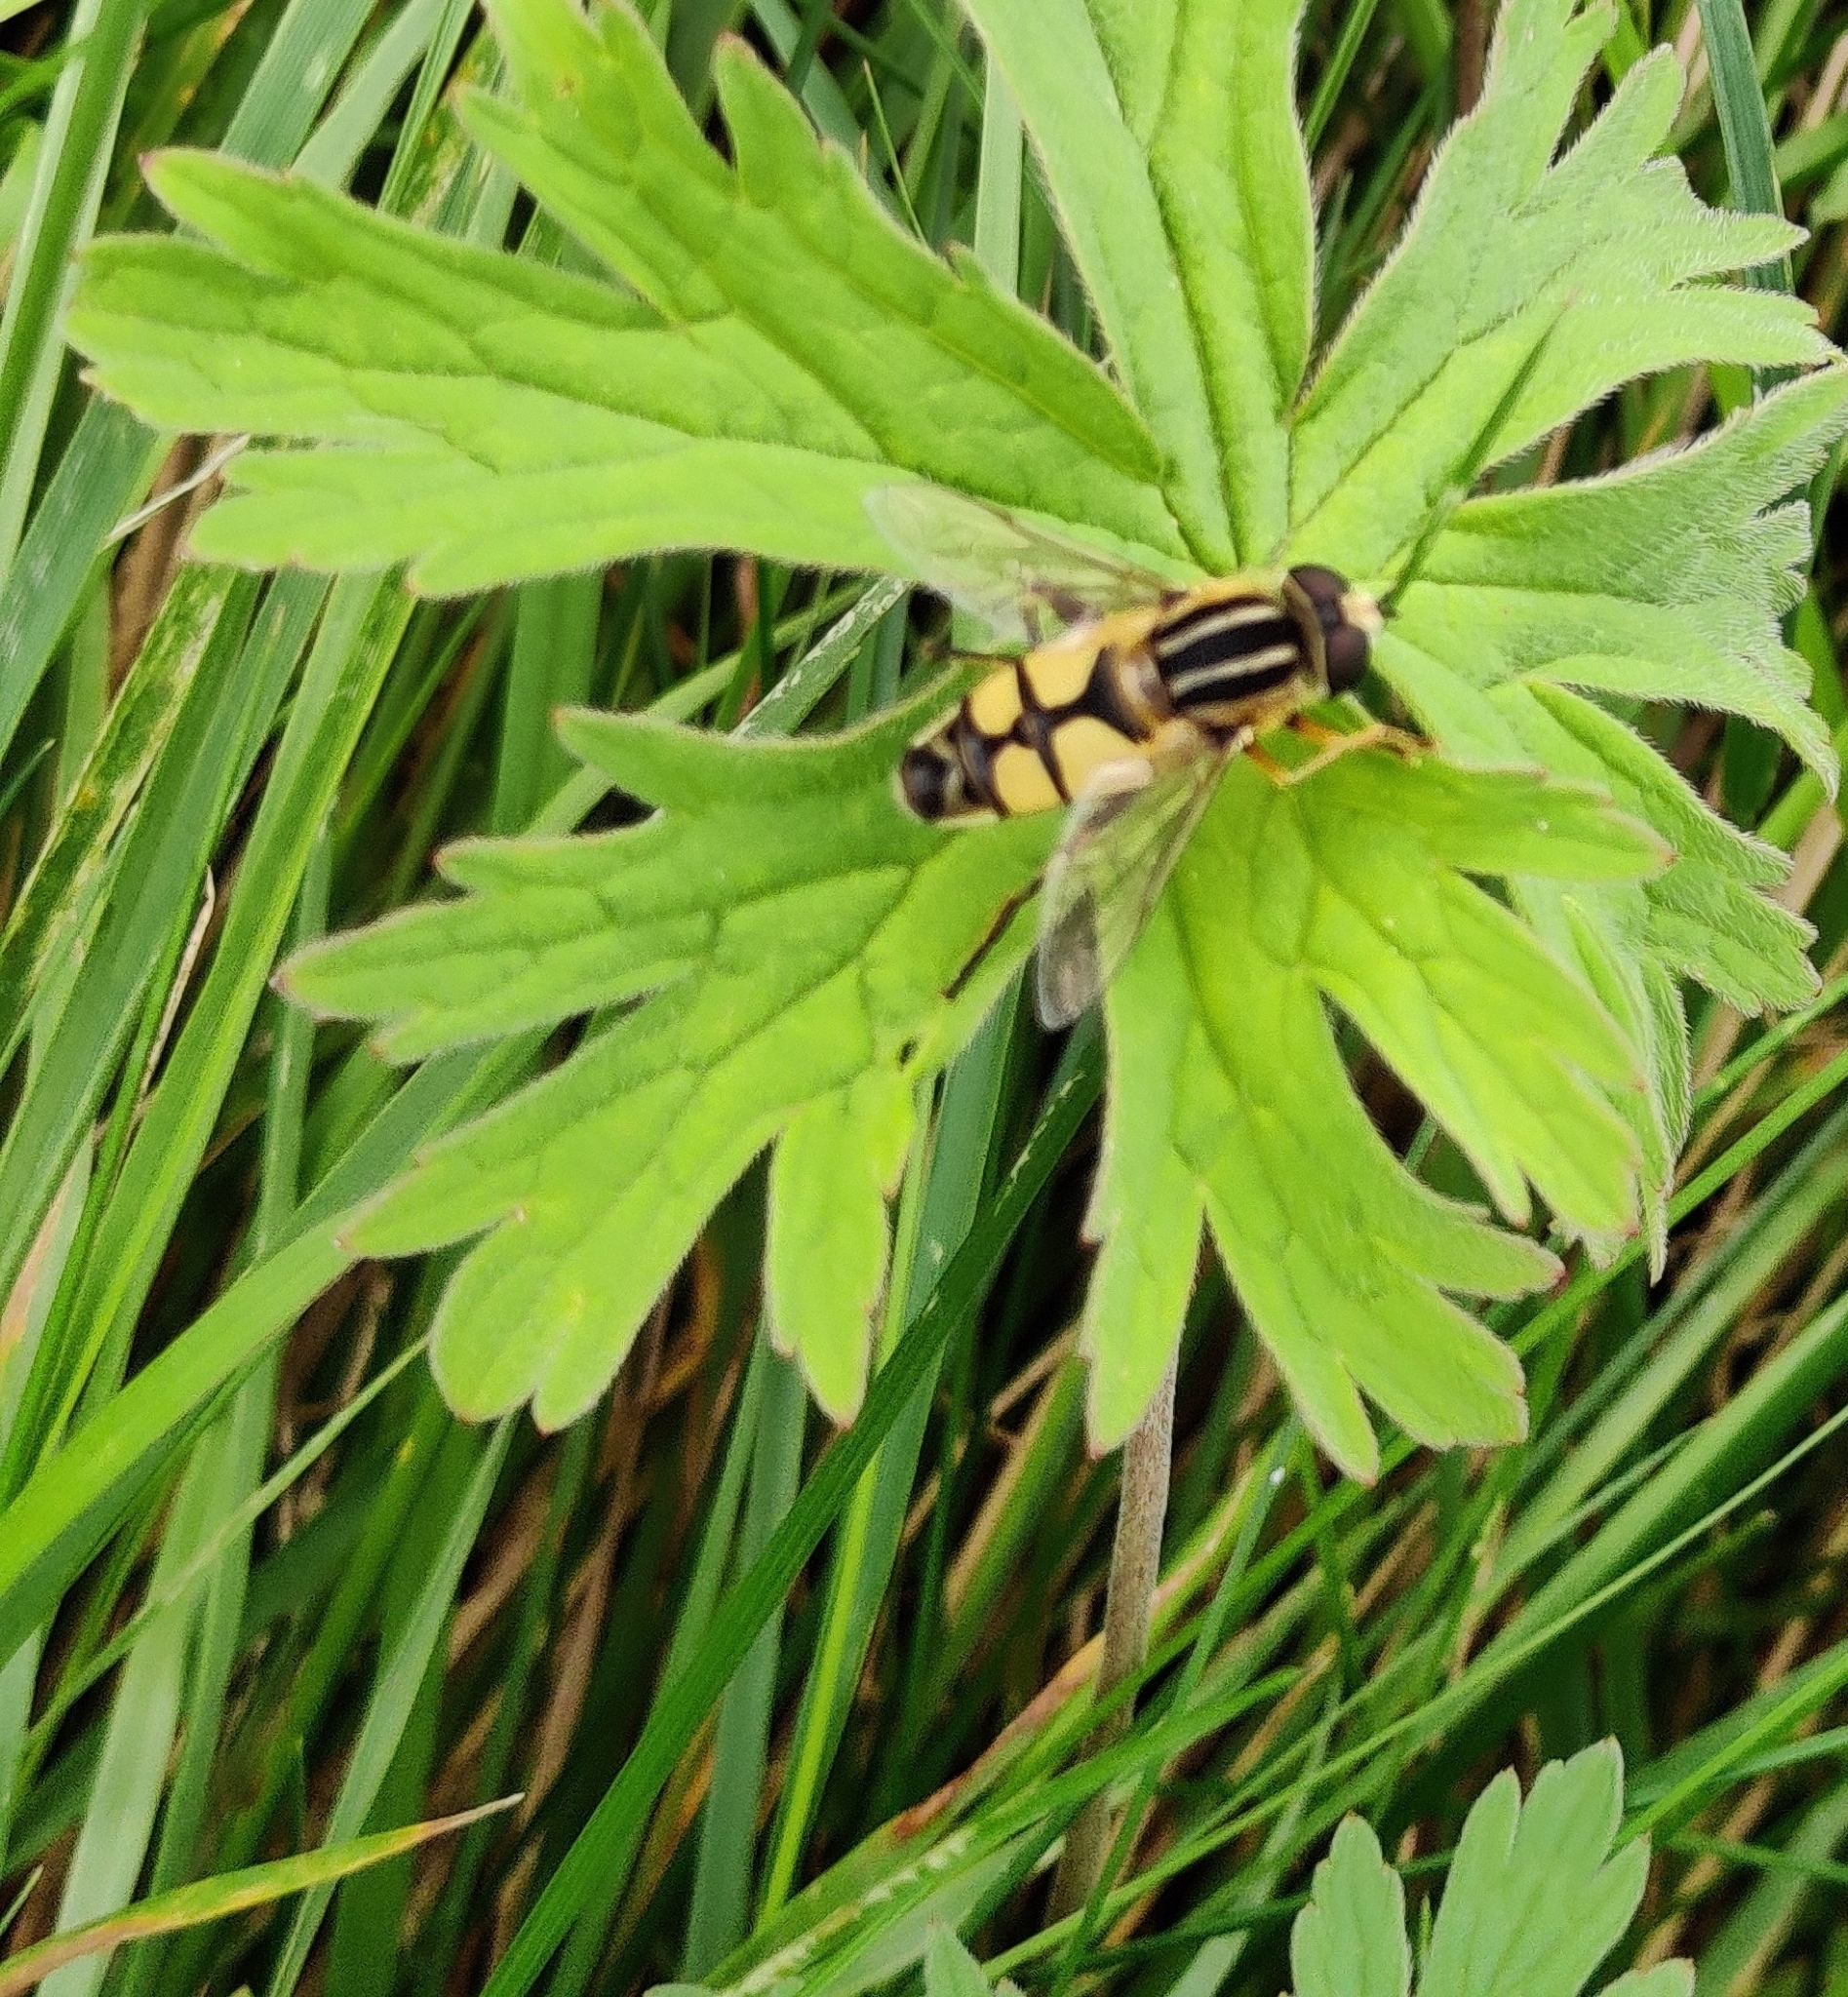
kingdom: Animalia
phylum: Arthropoda
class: Insecta
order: Diptera
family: Syrphidae
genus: Helophilus
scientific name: Helophilus trivittatus
